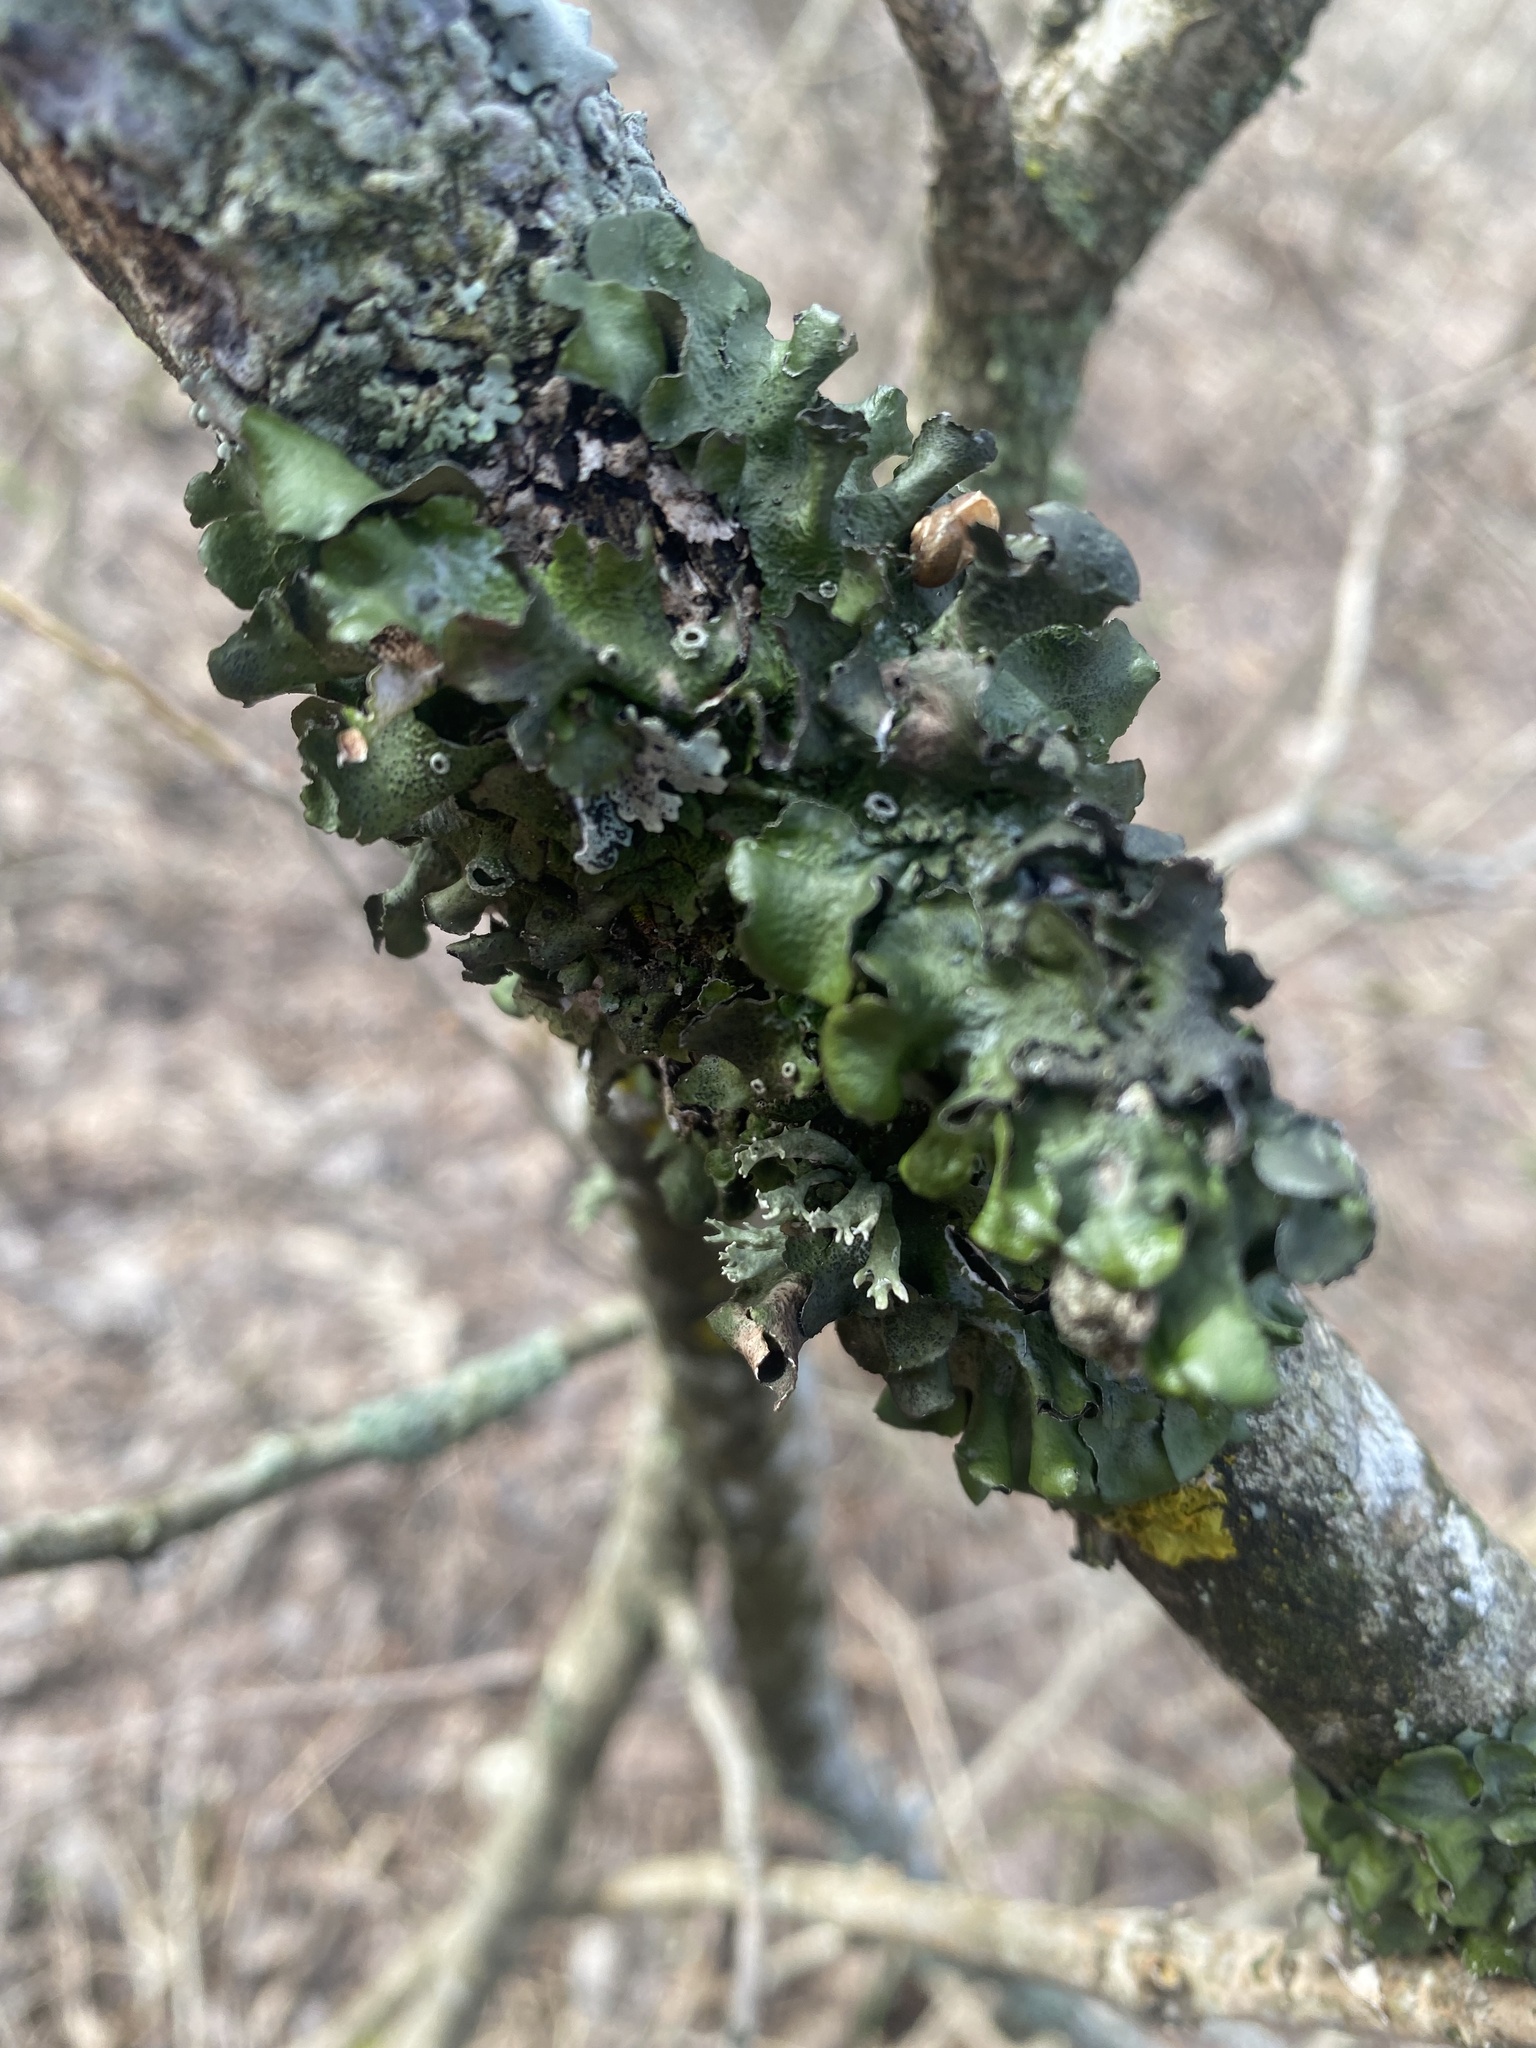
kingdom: Fungi
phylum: Ascomycota
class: Lecanoromycetes
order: Lecanorales
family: Parmeliaceae
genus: Pleurosticta
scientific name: Pleurosticta acetabulum
